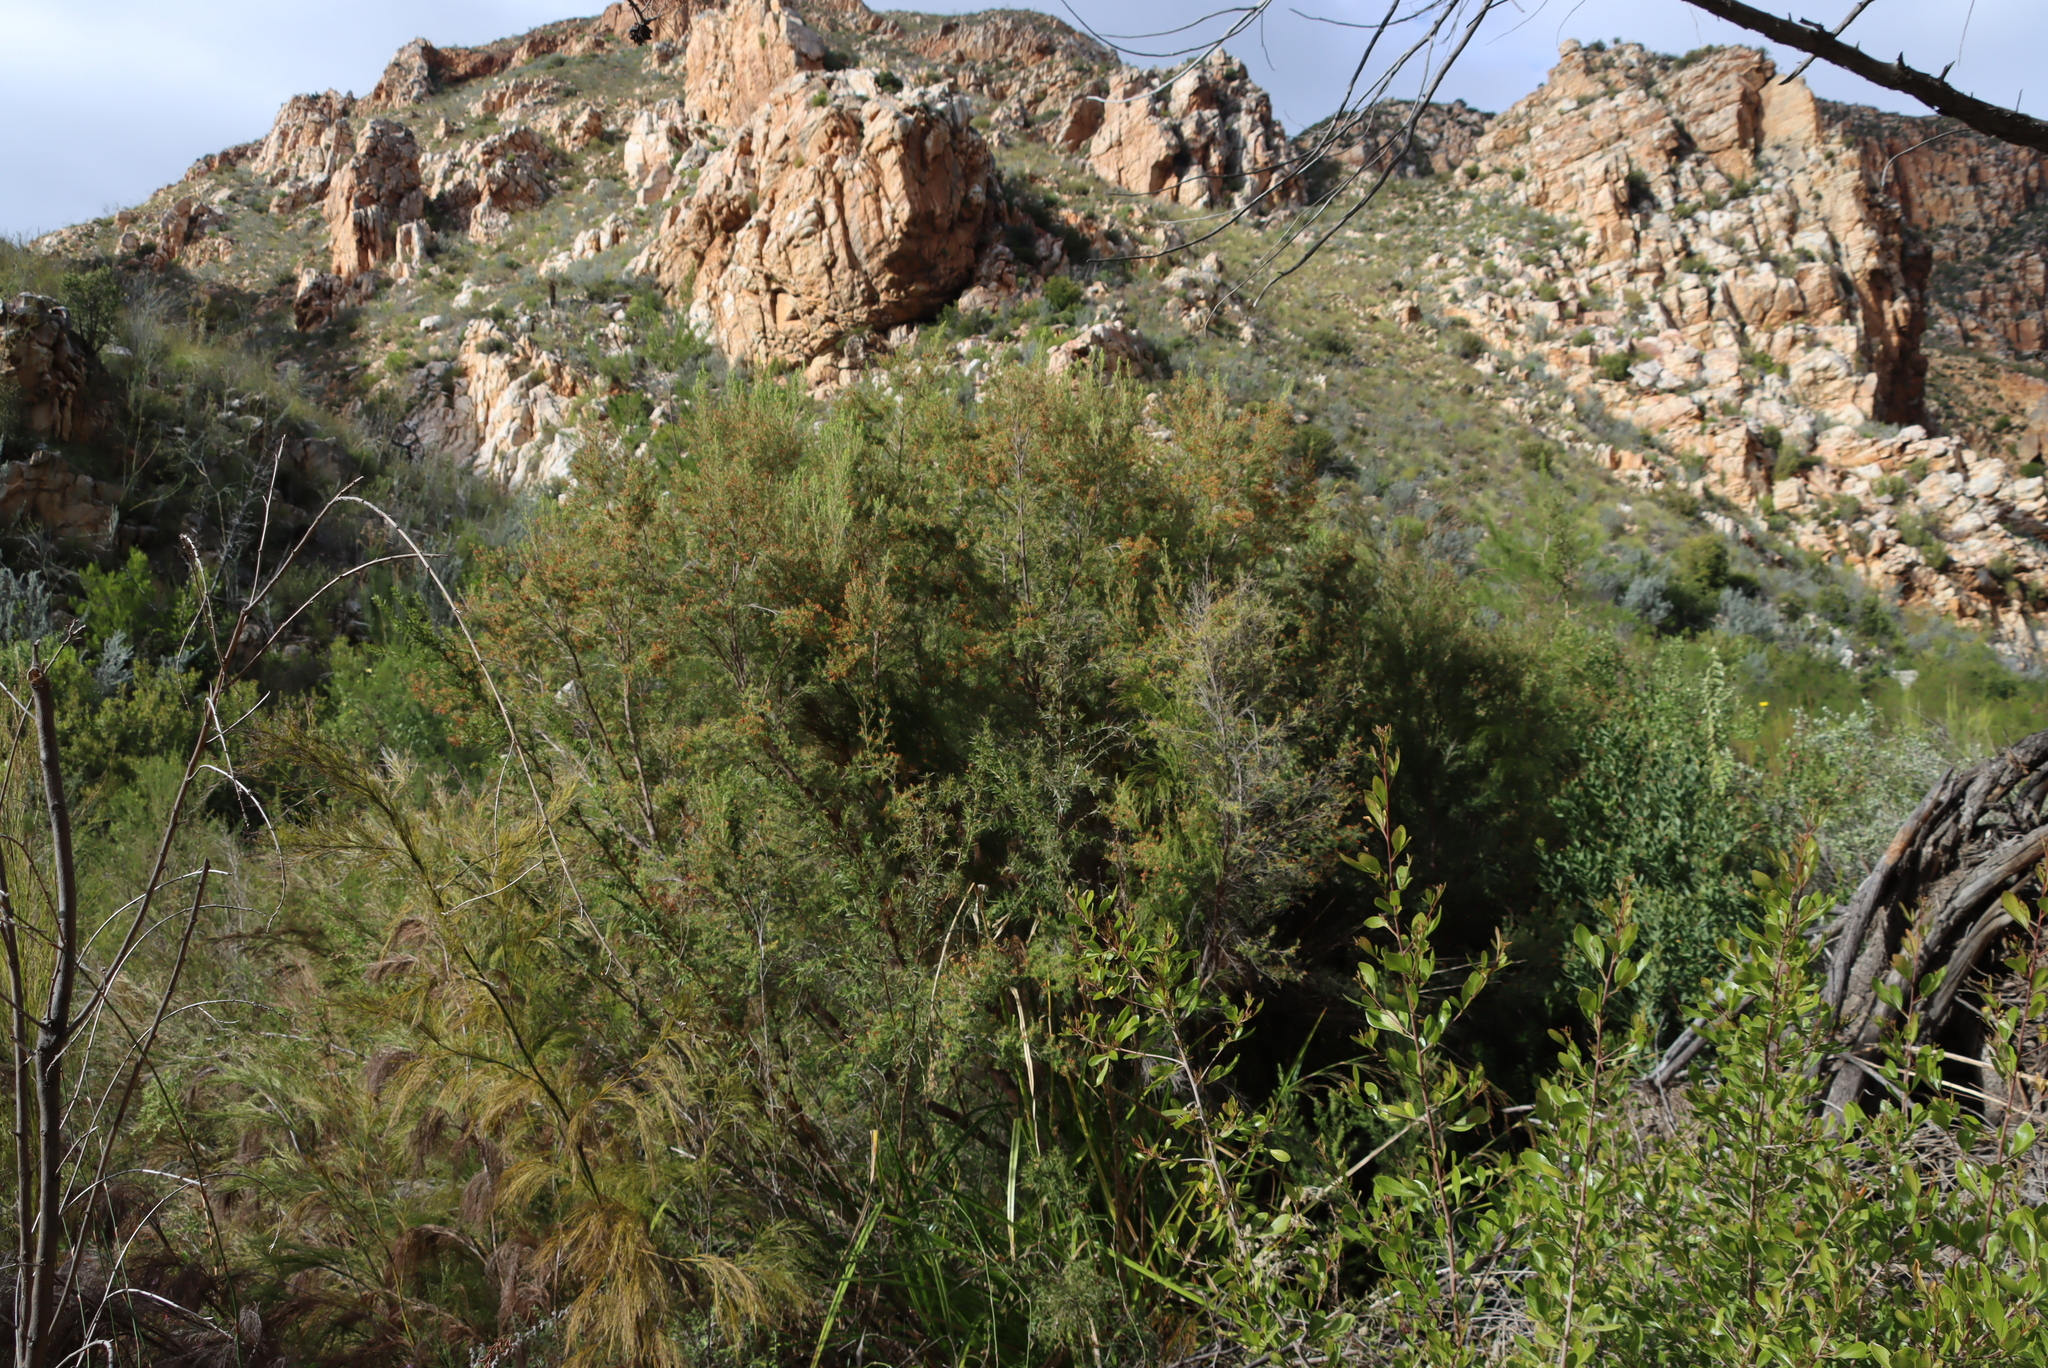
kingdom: Plantae
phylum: Tracheophyta
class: Magnoliopsida
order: Ericales
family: Ericaceae
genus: Erica
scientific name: Erica caffra
